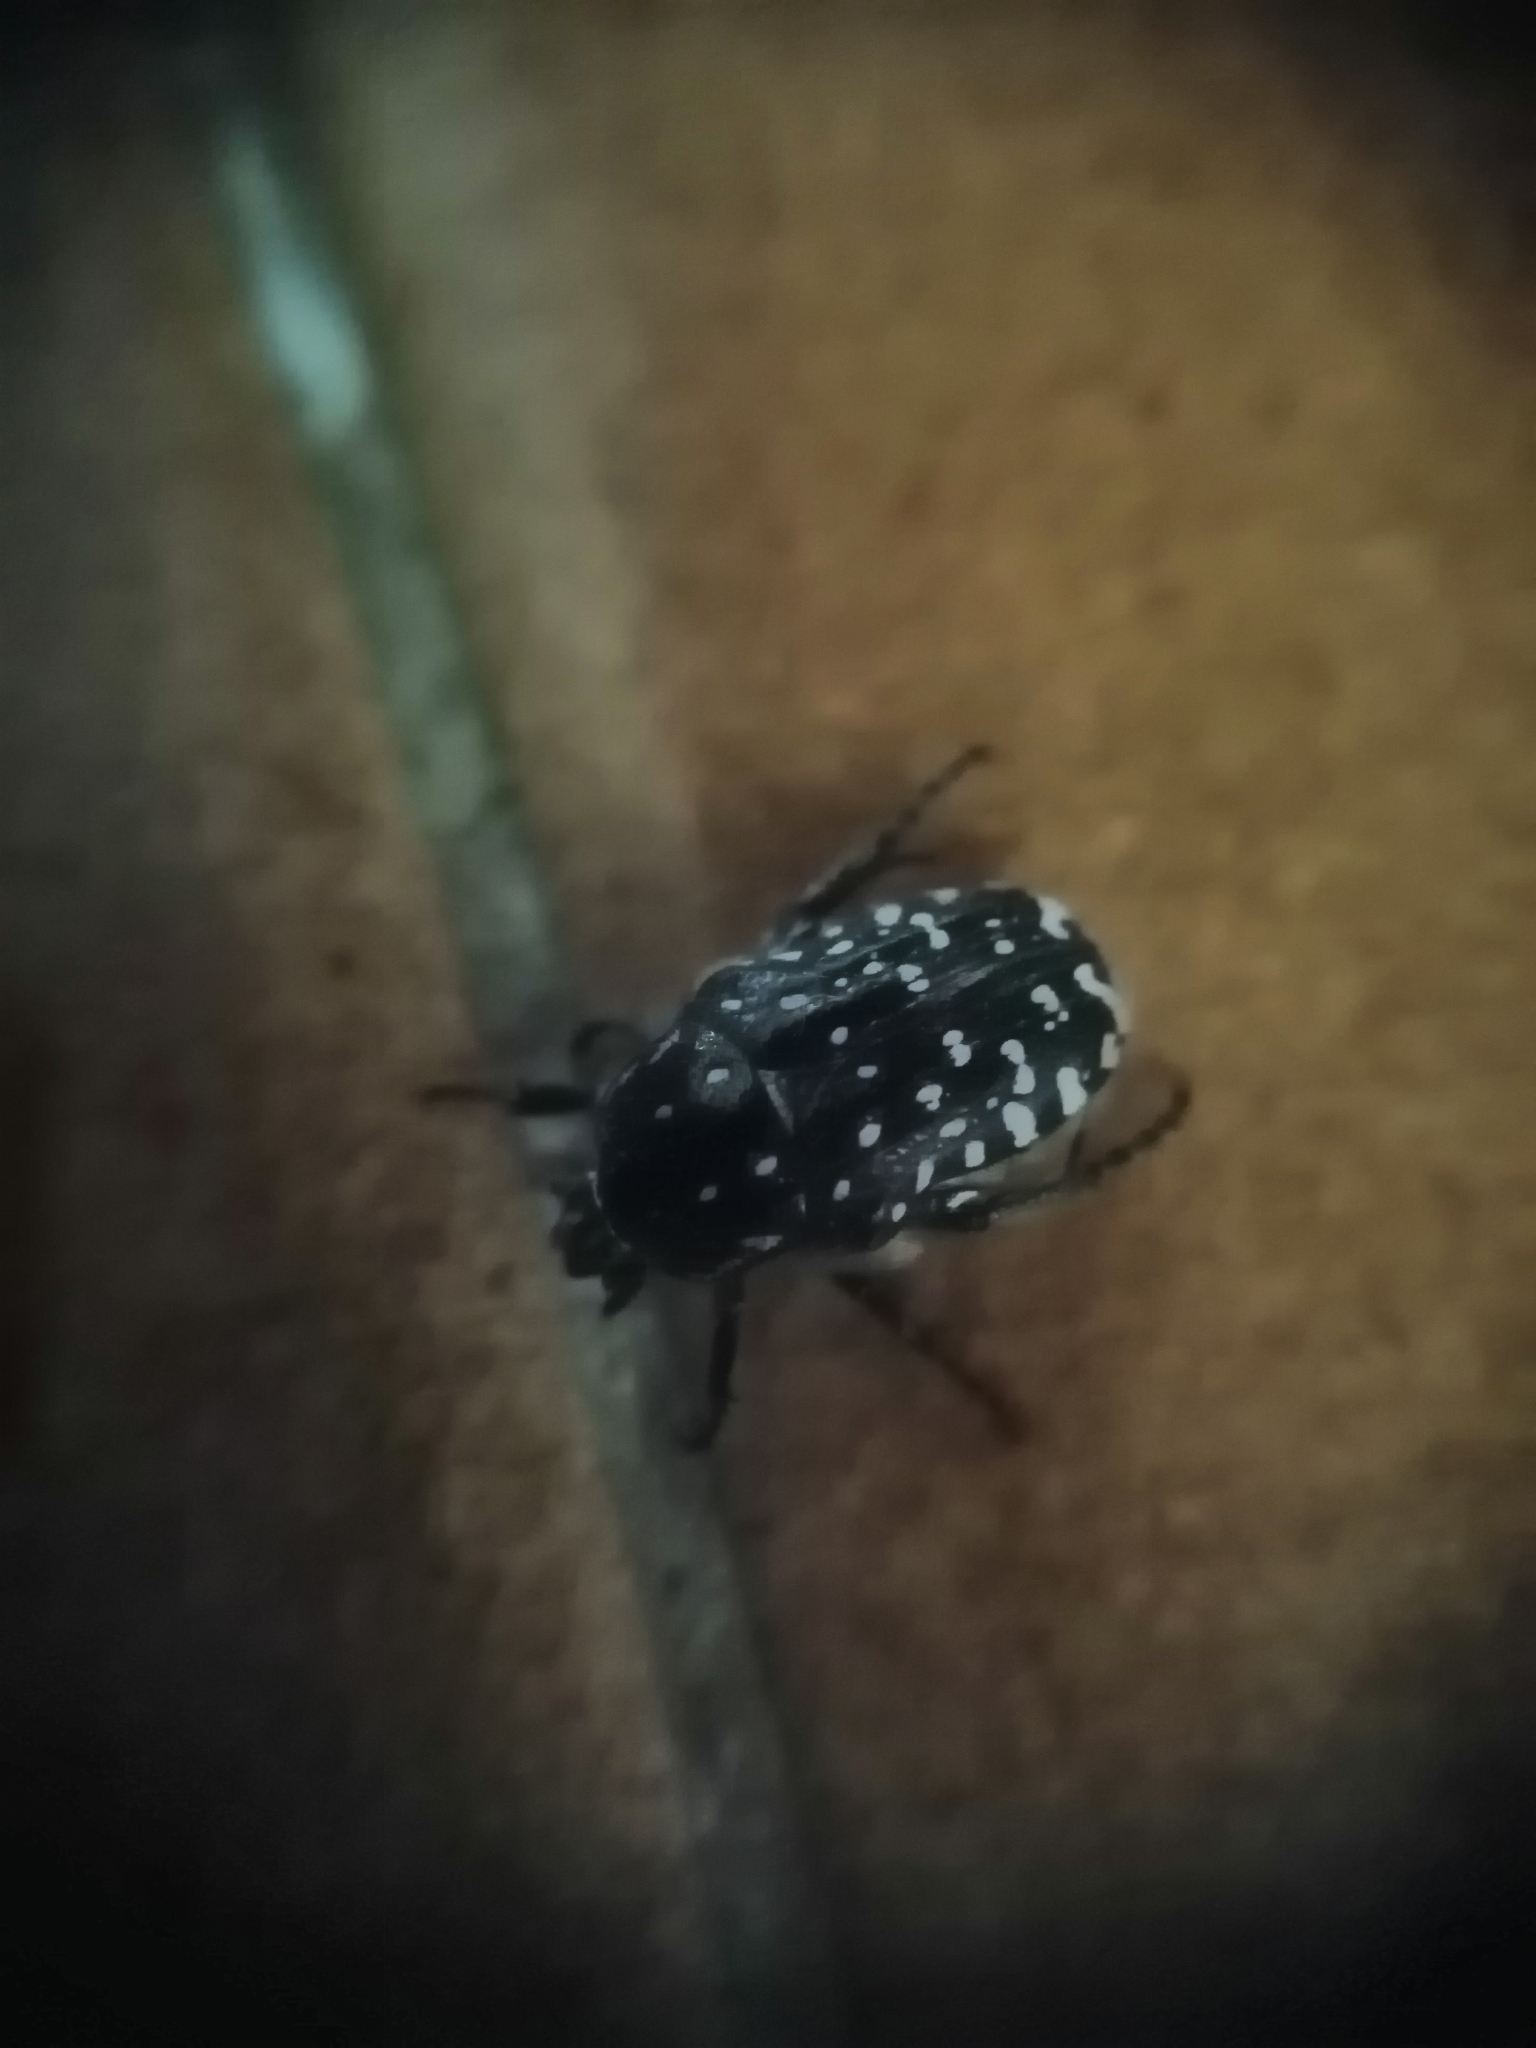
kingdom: Animalia
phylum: Arthropoda
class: Insecta
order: Coleoptera
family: Scarabaeidae
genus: Oxythyrea
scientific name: Oxythyrea funesta
